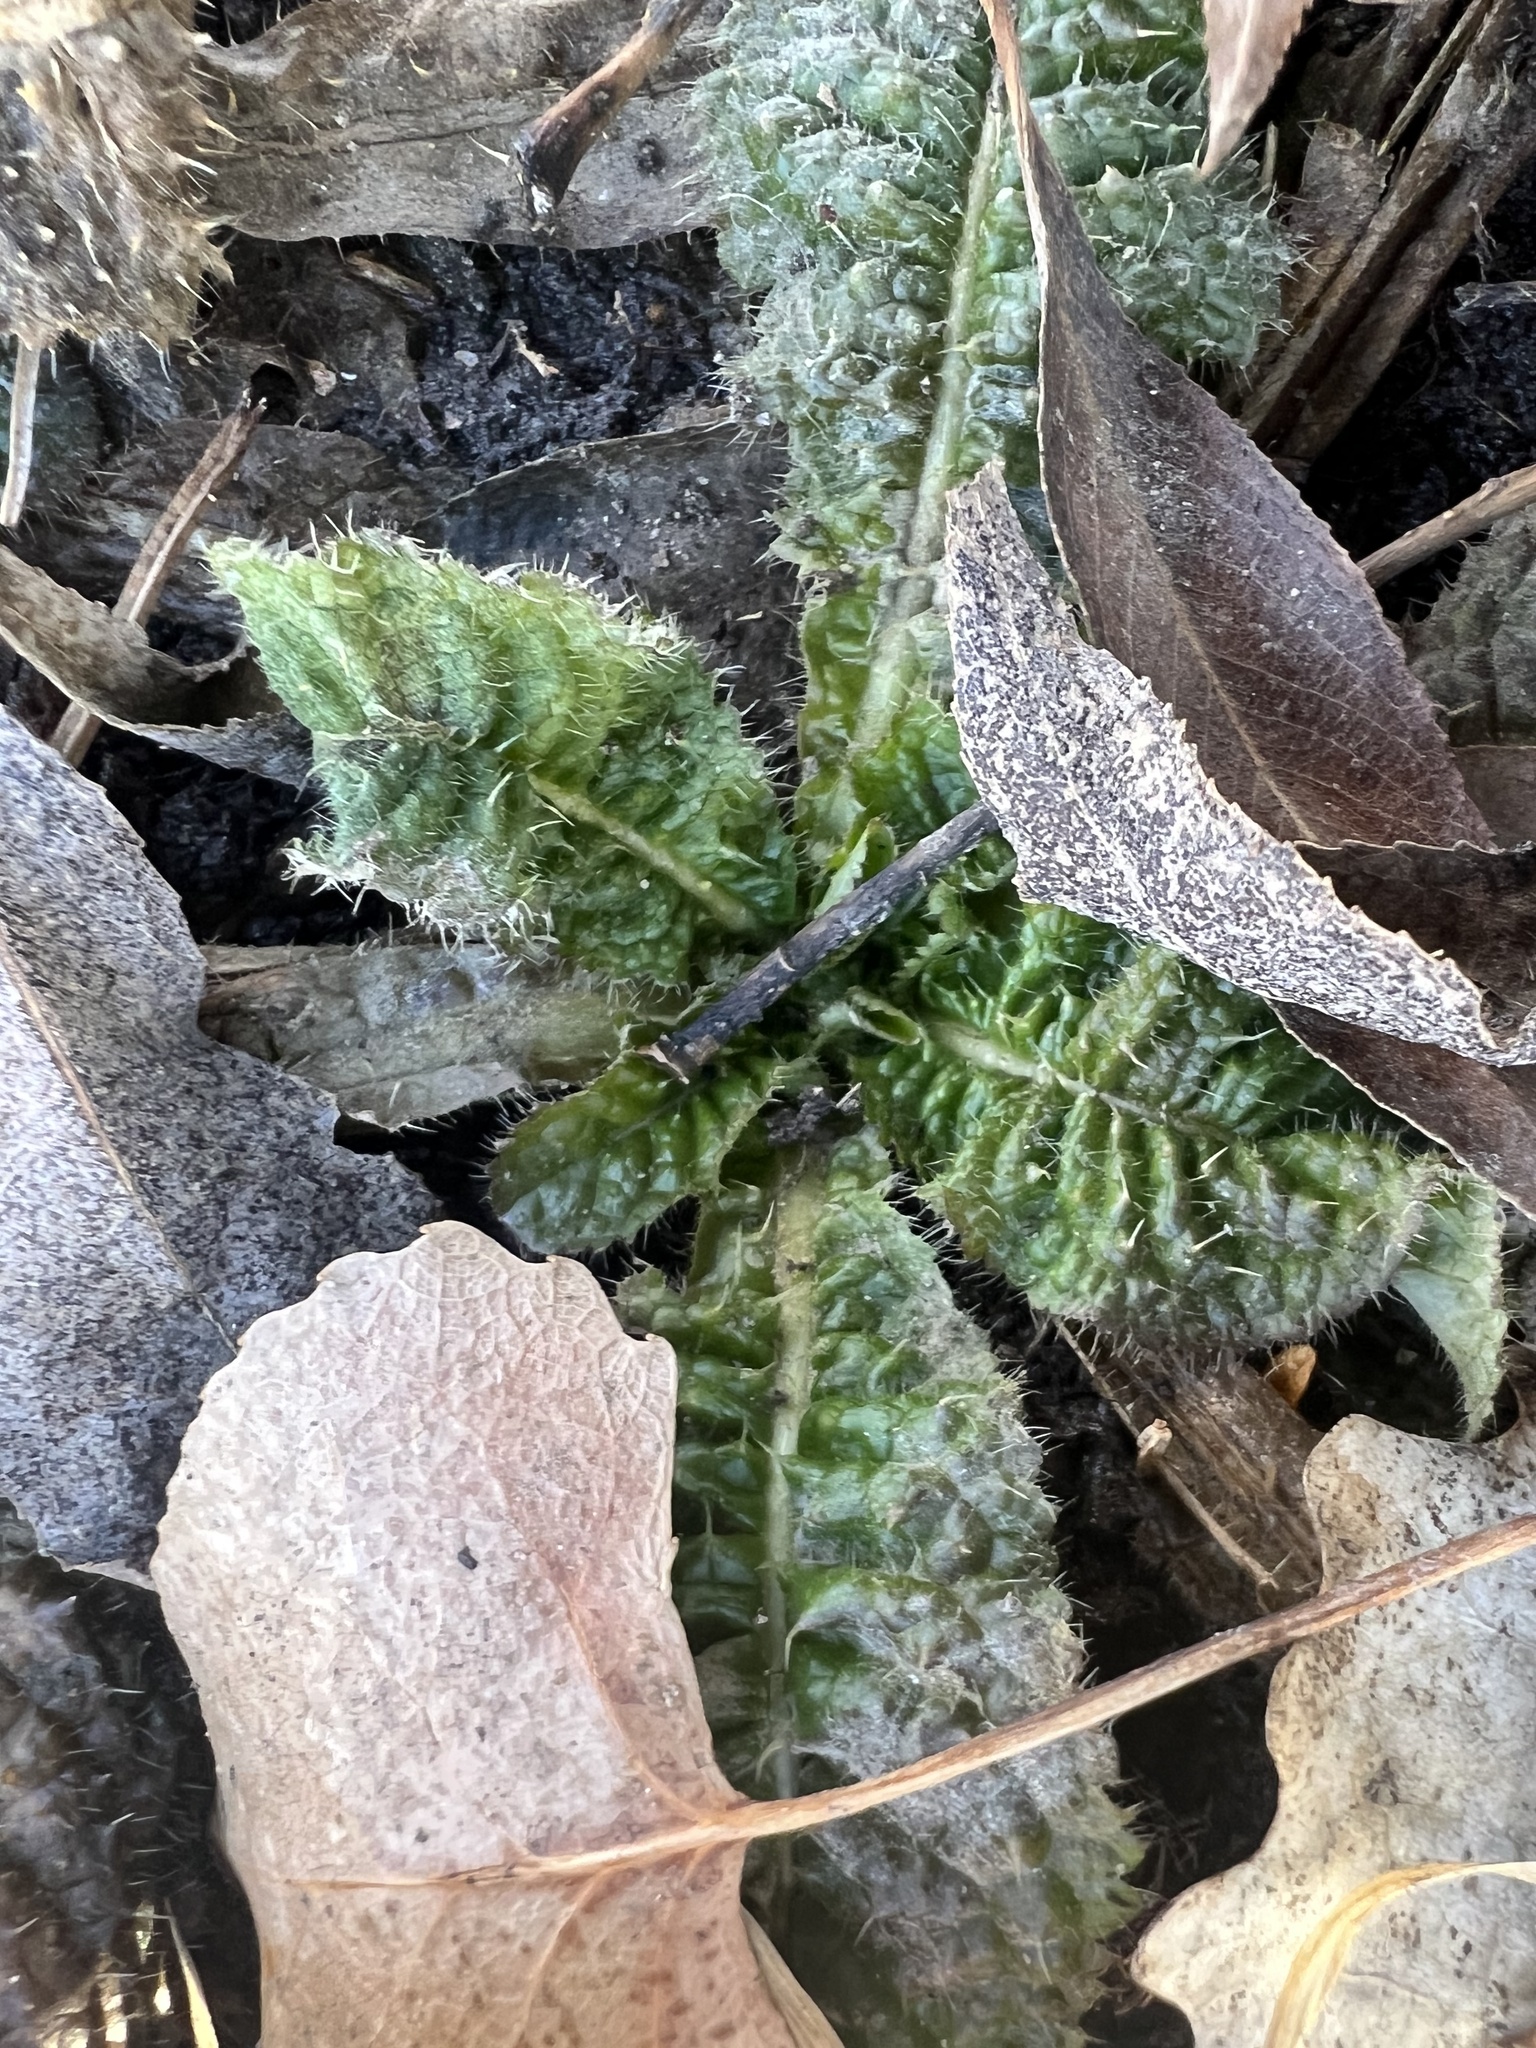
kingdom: Plantae
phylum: Tracheophyta
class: Magnoliopsida
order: Dipsacales
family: Caprifoliaceae
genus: Dipsacus
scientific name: Dipsacus fullonum
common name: Teasel
